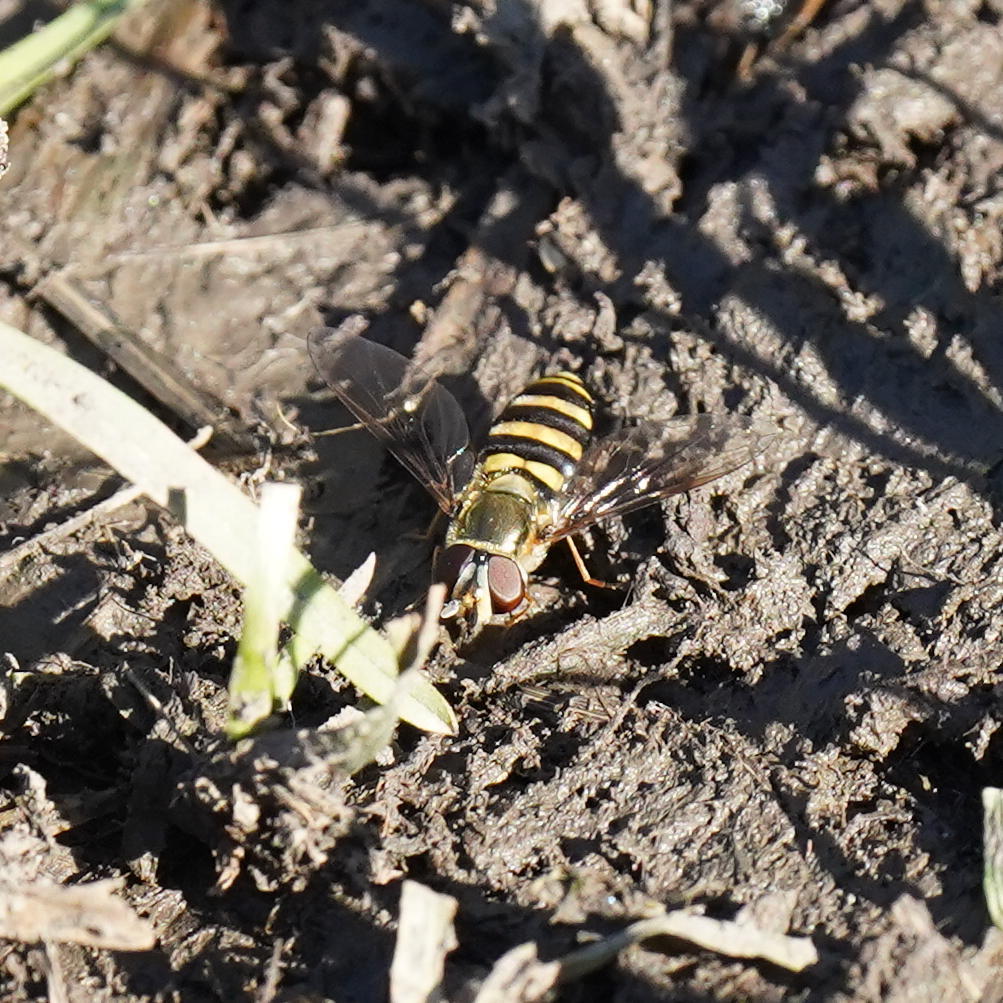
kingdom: Animalia
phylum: Arthropoda
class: Insecta
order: Diptera
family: Syrphidae
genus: Eupeodes
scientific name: Eupeodes
